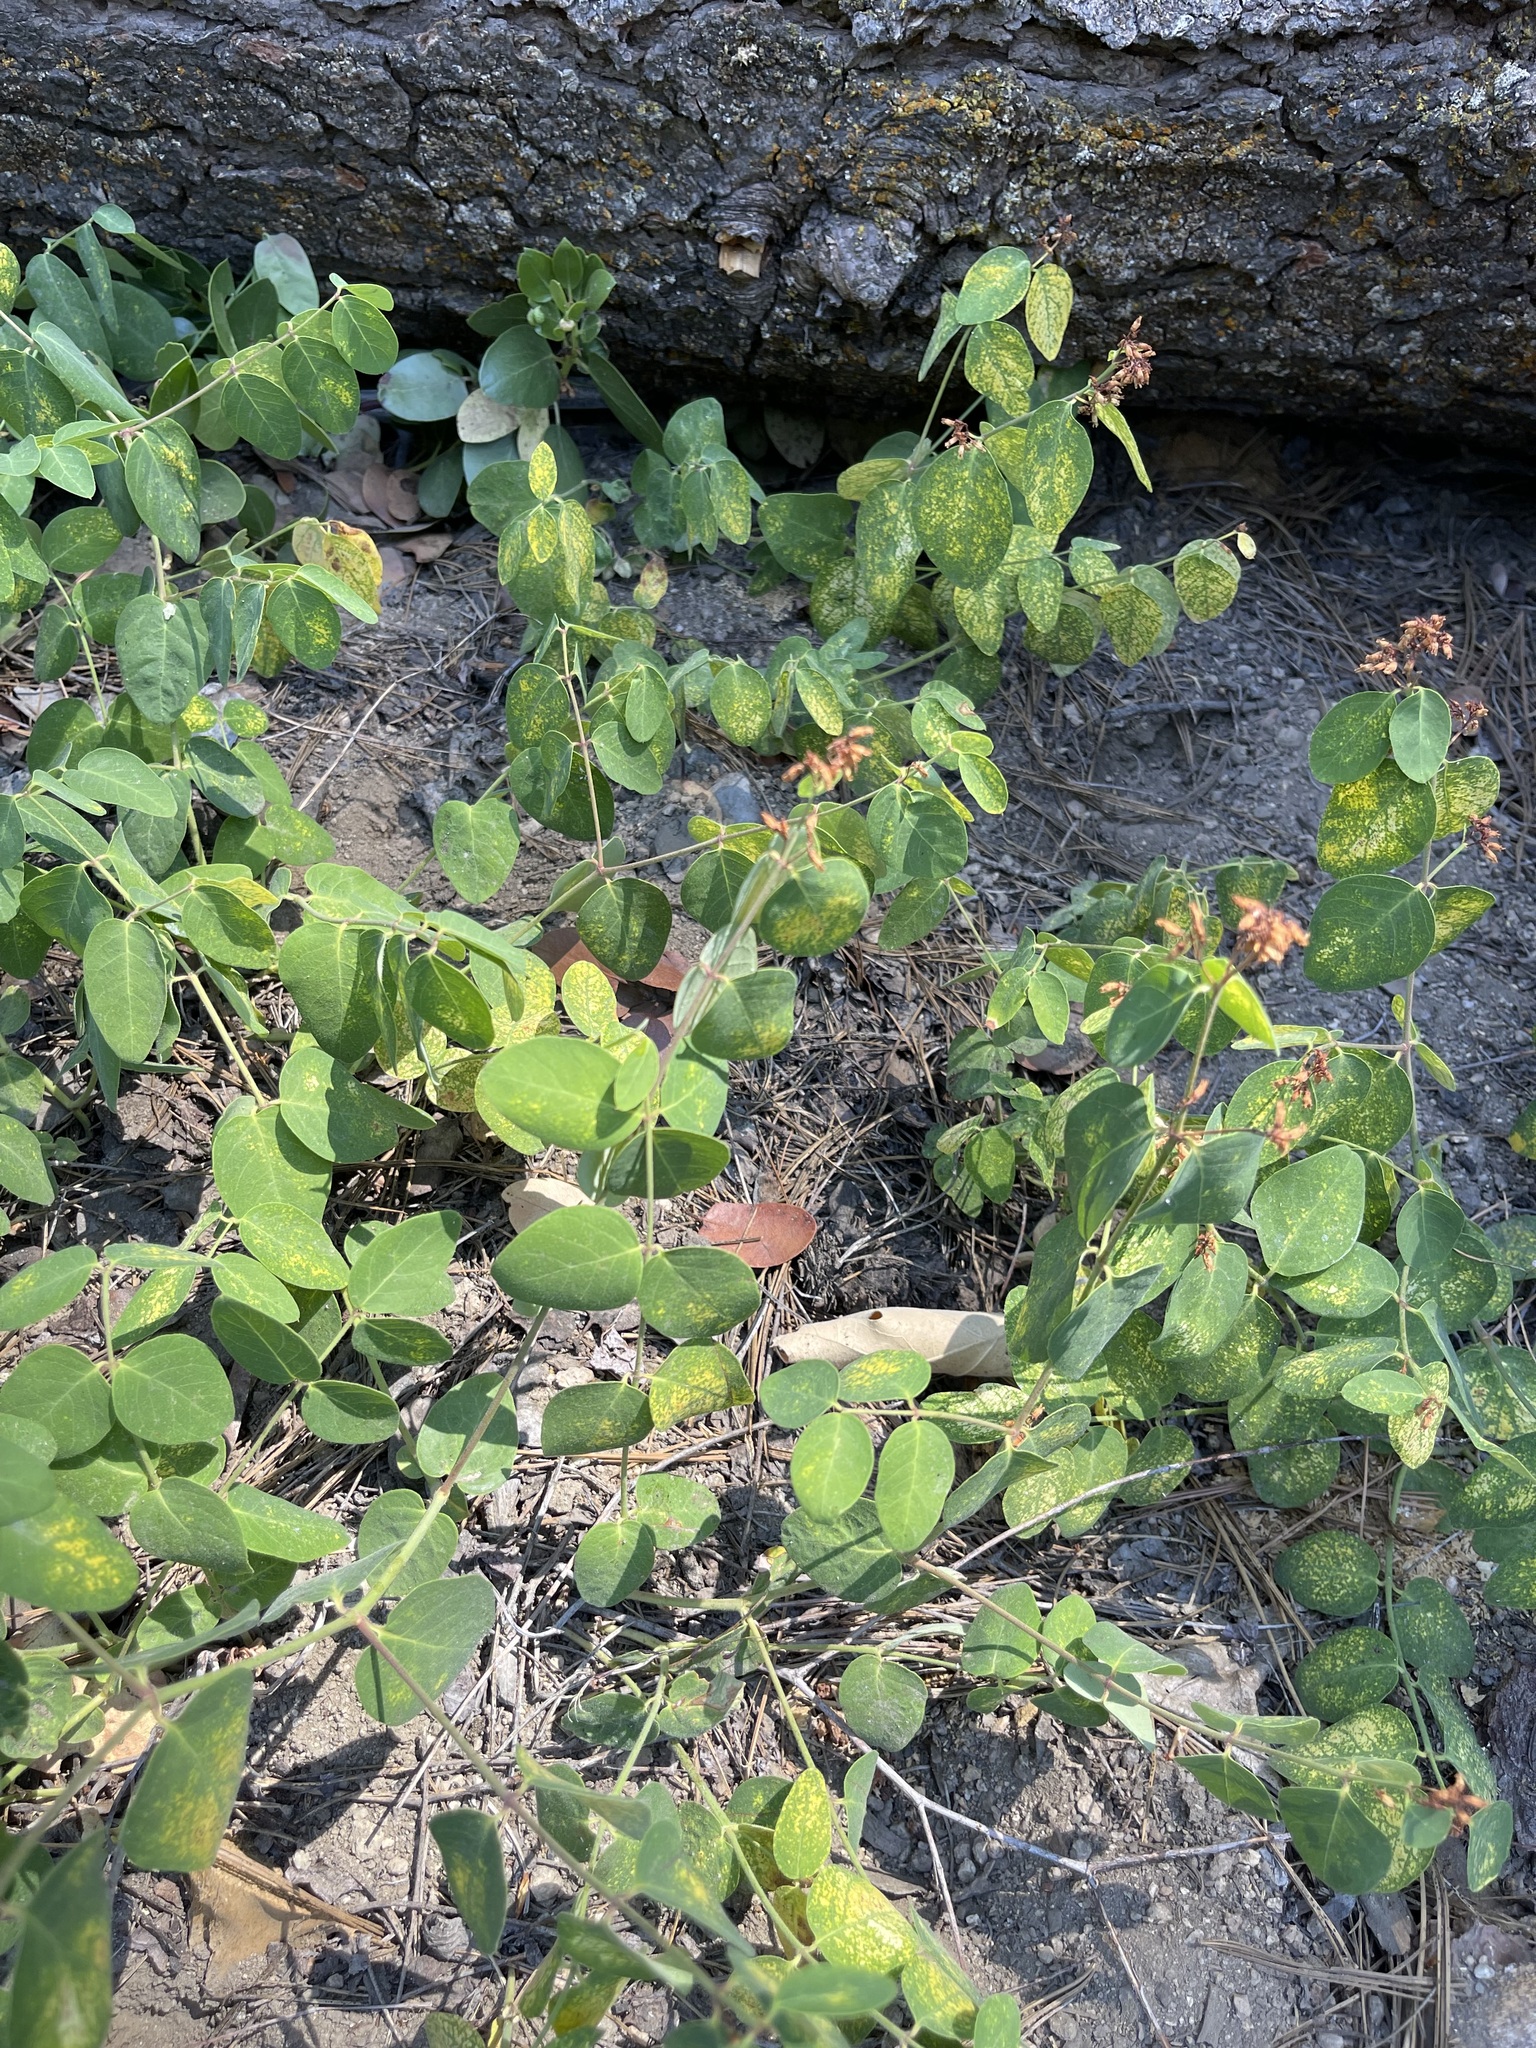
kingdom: Plantae
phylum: Tracheophyta
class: Magnoliopsida
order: Gentianales
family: Apocynaceae
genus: Apocynum
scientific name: Apocynum androsaemifolium
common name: Spreading dogbane
